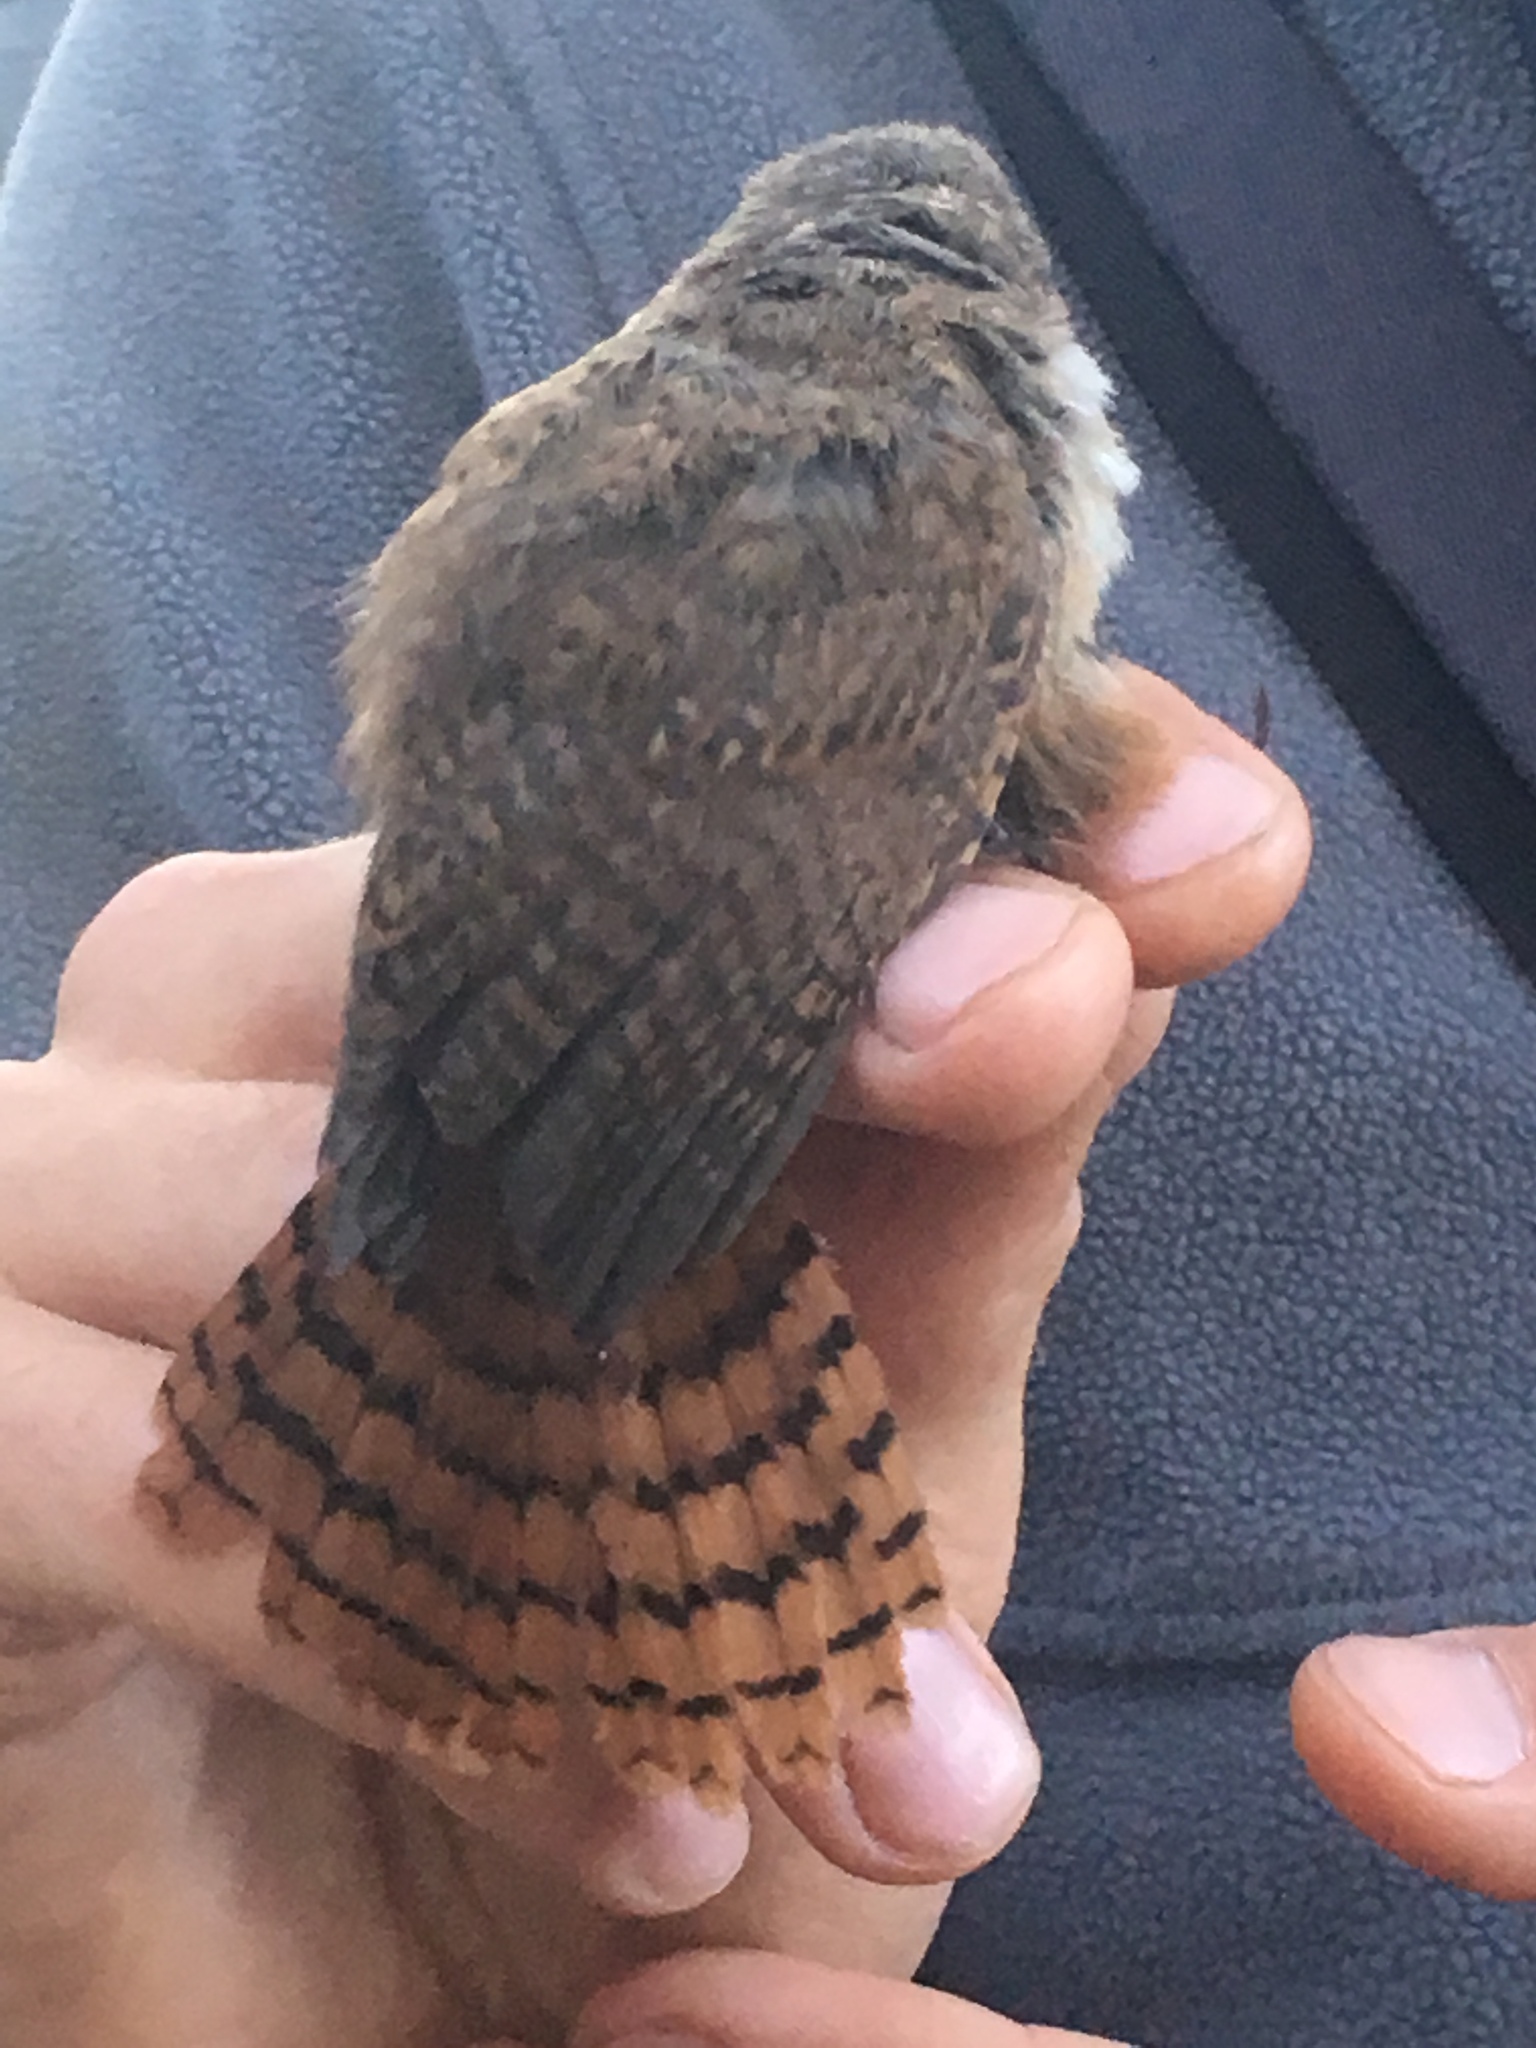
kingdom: Animalia
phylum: Chordata
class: Aves
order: Passeriformes
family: Troglodytidae
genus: Catherpes
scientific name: Catherpes mexicanus
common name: Canyon wren
